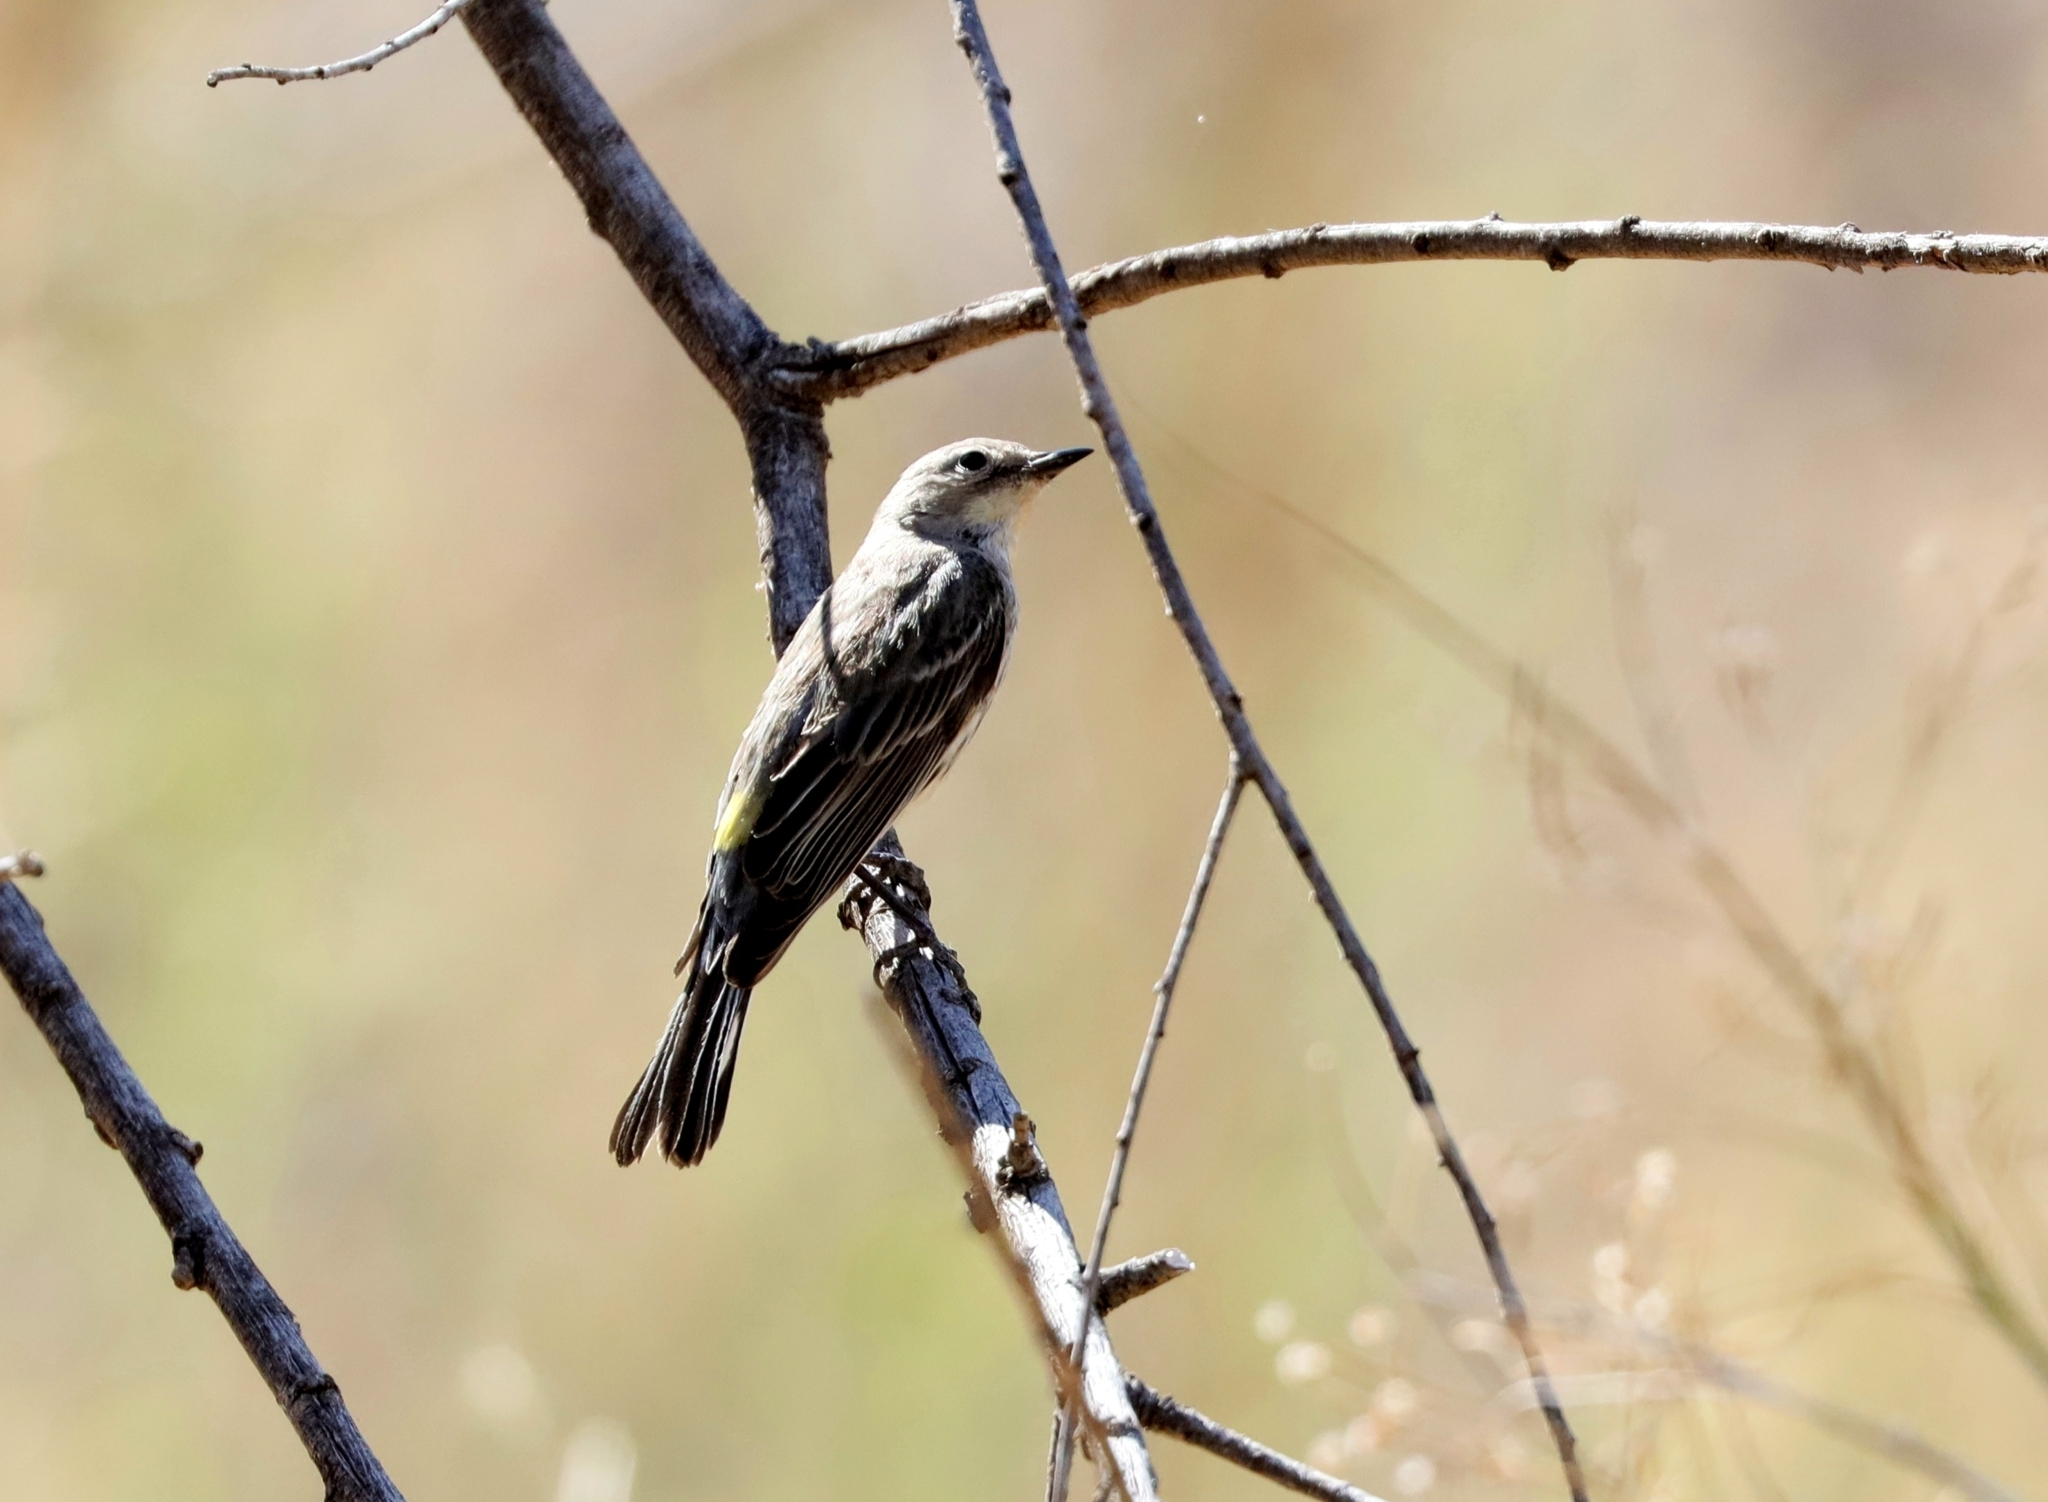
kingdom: Animalia
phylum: Chordata
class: Aves
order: Passeriformes
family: Parulidae
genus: Setophaga
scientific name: Setophaga coronata
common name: Myrtle warbler
